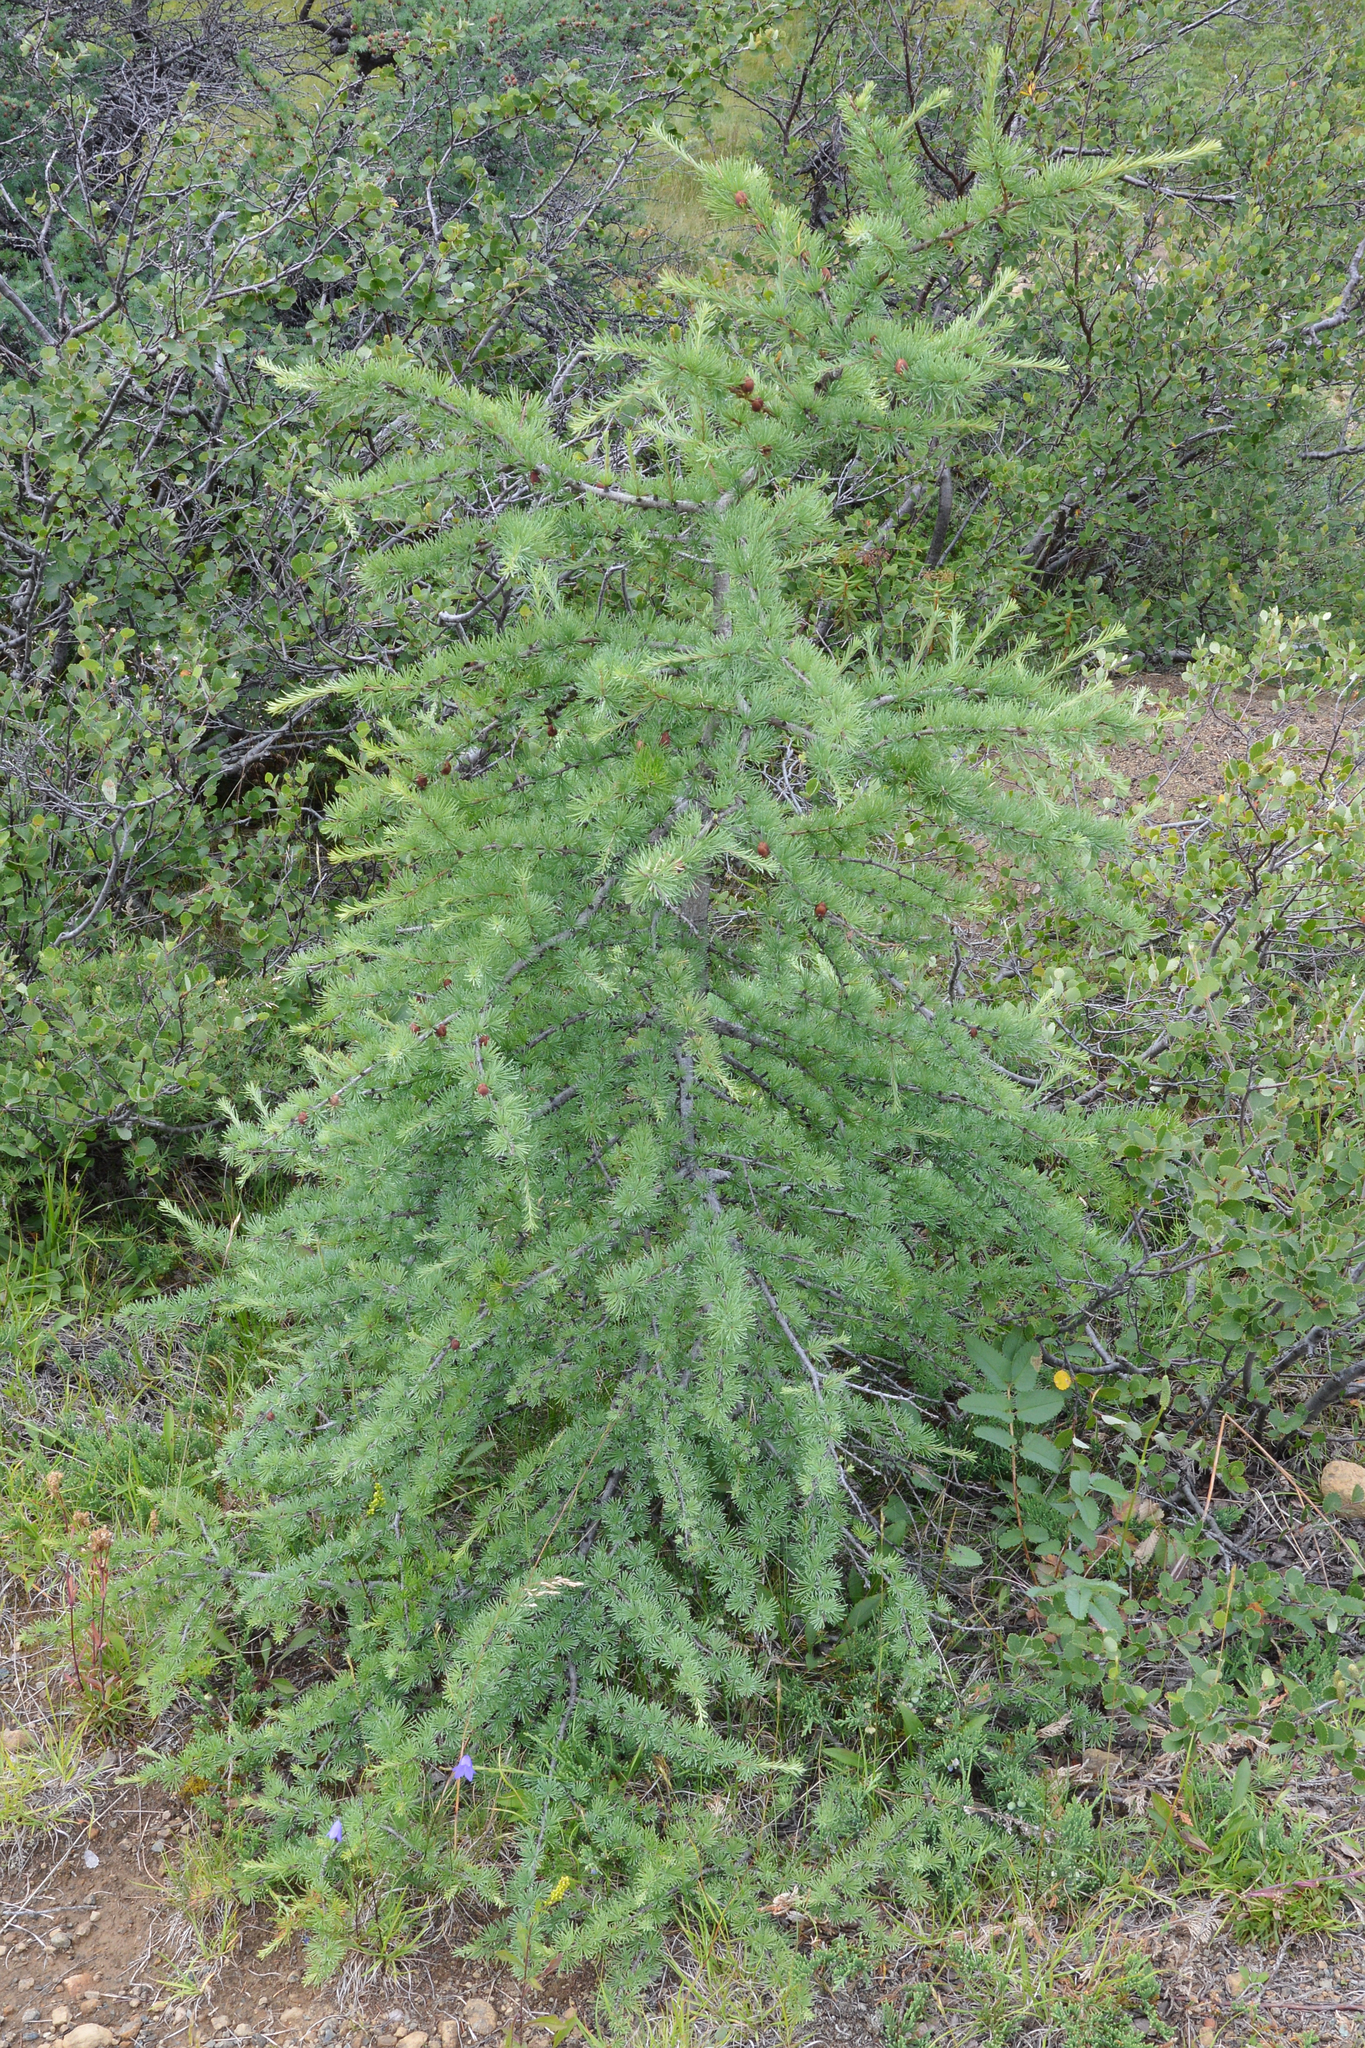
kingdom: Plantae
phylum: Tracheophyta
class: Pinopsida
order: Pinales
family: Pinaceae
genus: Larix
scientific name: Larix laricina
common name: American larch
